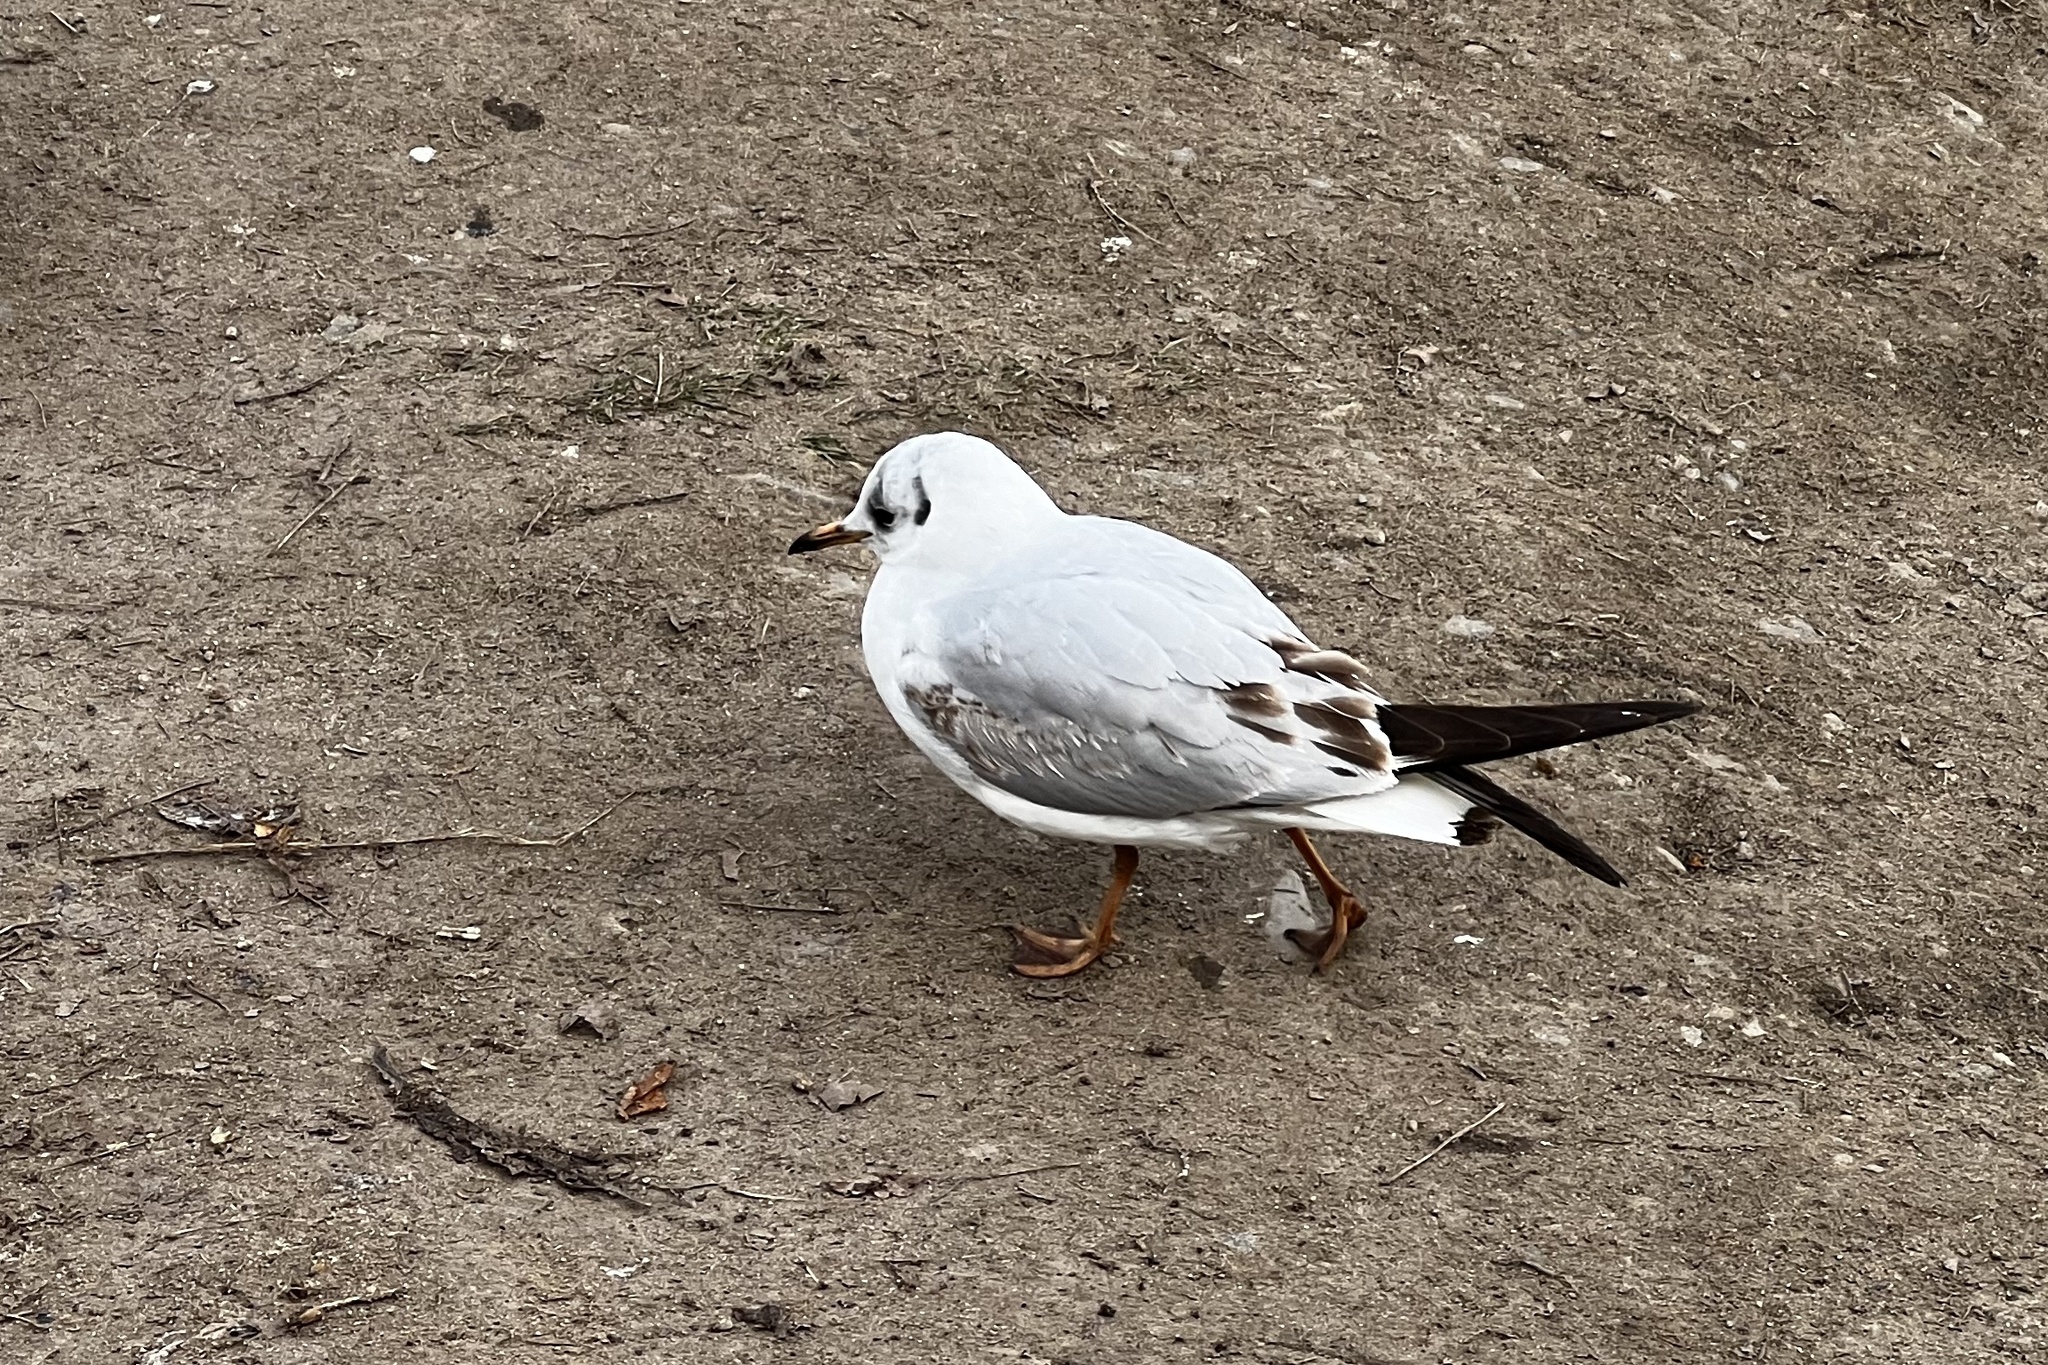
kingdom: Animalia
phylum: Chordata
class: Aves
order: Charadriiformes
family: Laridae
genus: Chroicocephalus
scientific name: Chroicocephalus ridibundus
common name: Black-headed gull
